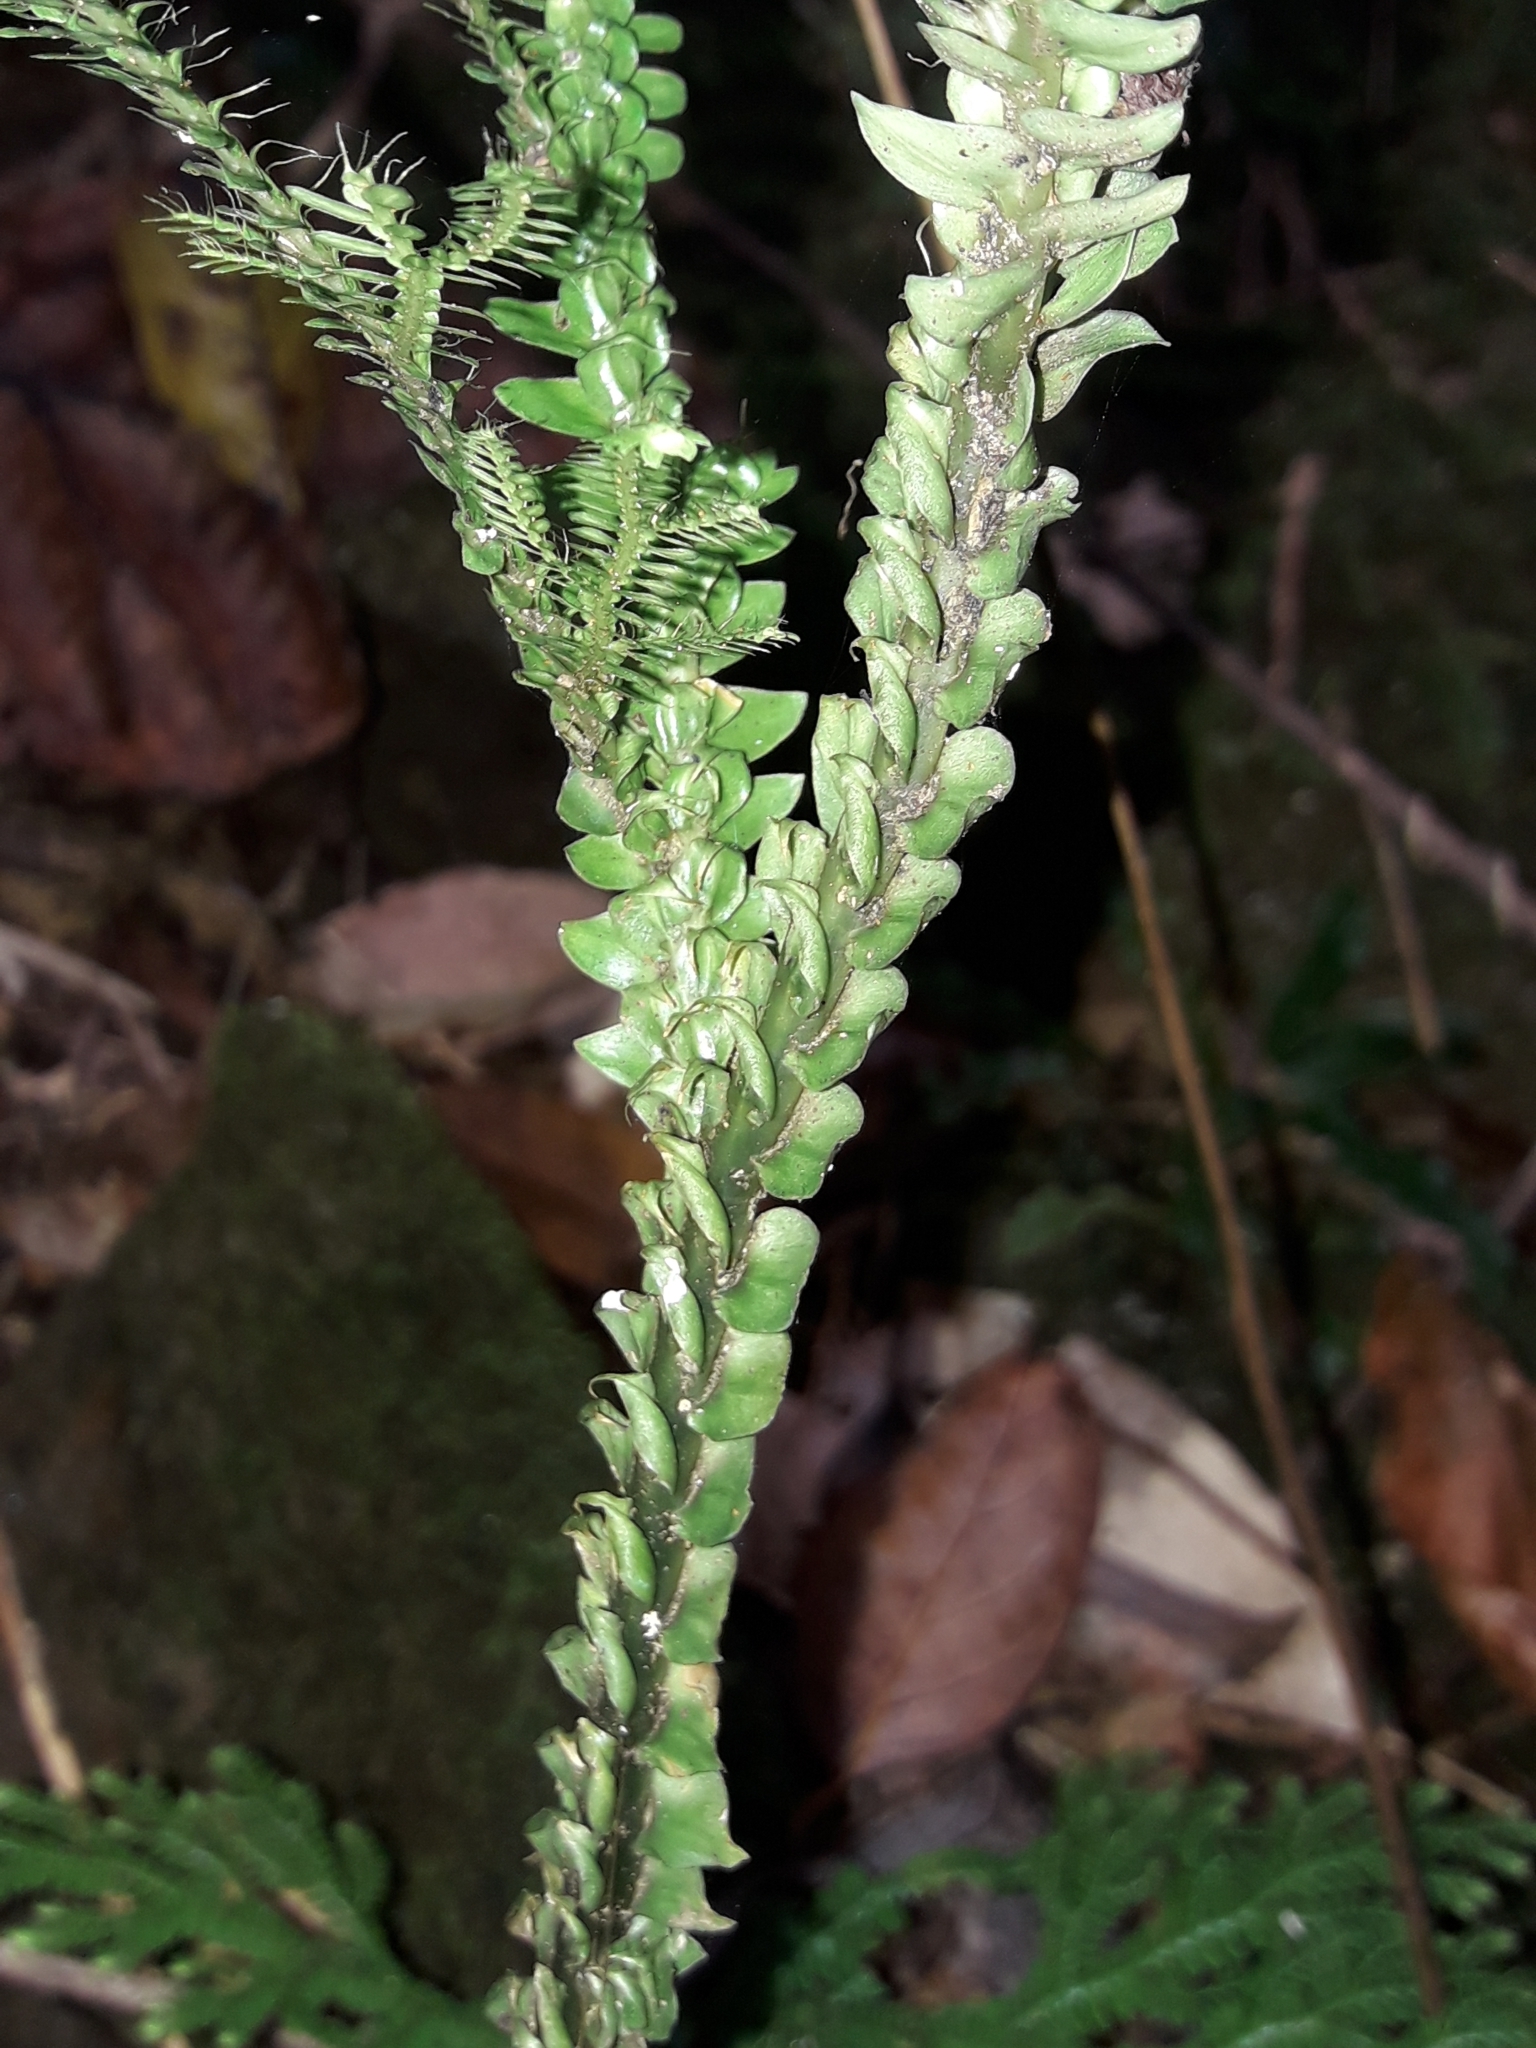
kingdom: Plantae
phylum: Tracheophyta
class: Lycopodiopsida
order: Selaginellales
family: Selaginellaceae
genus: Selaginella
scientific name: Selaginella hordeiformis
